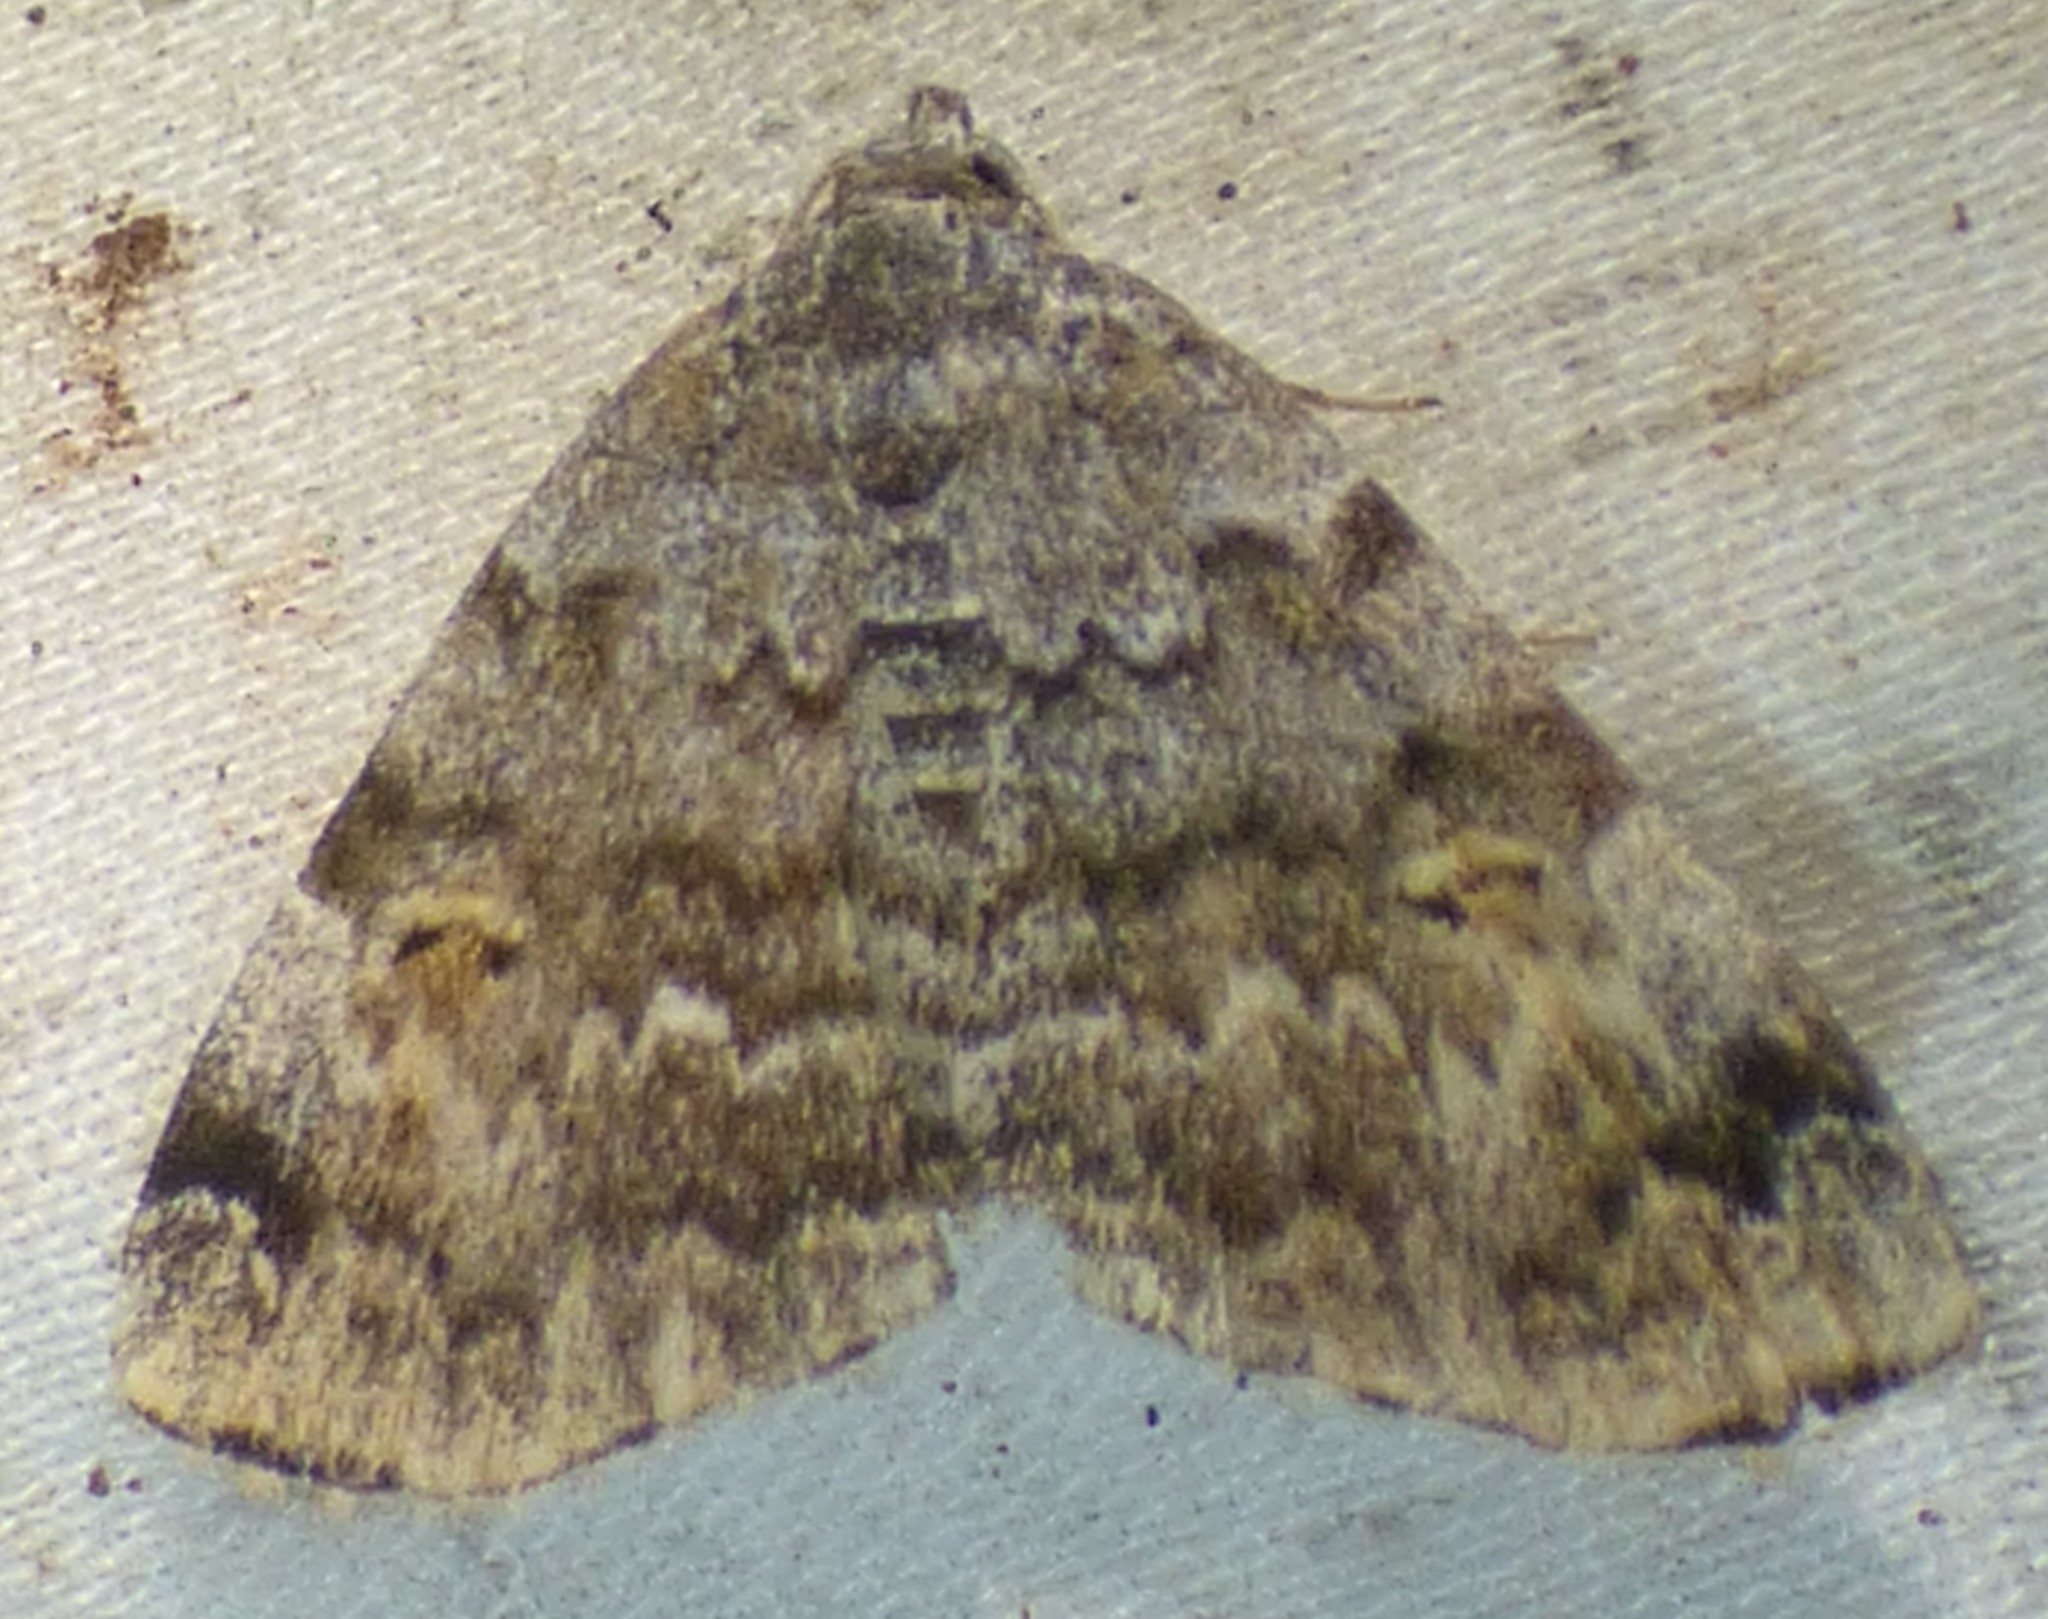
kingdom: Animalia
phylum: Arthropoda
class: Insecta
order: Lepidoptera
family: Erebidae
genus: Idia
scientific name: Idia americalis
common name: American idia moth
